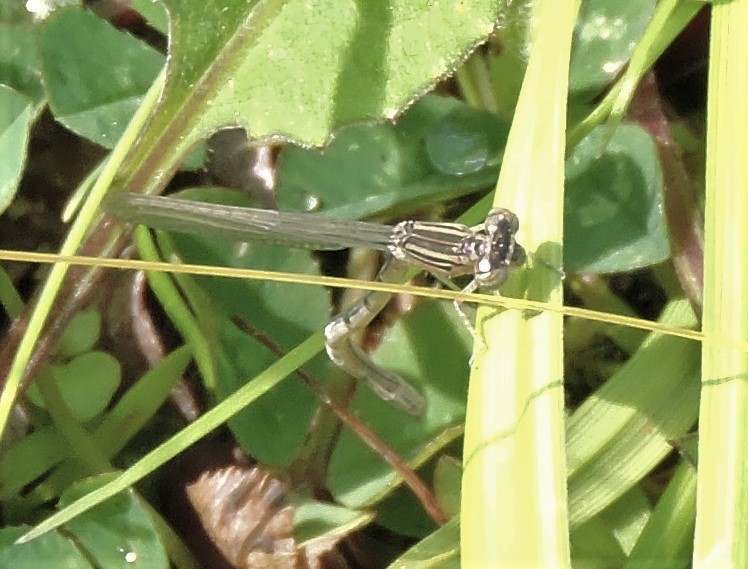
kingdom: Animalia
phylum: Arthropoda
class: Insecta
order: Odonata
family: Coenagrionidae
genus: Enallagma
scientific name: Enallagma basidens
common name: Double-striped bluet
